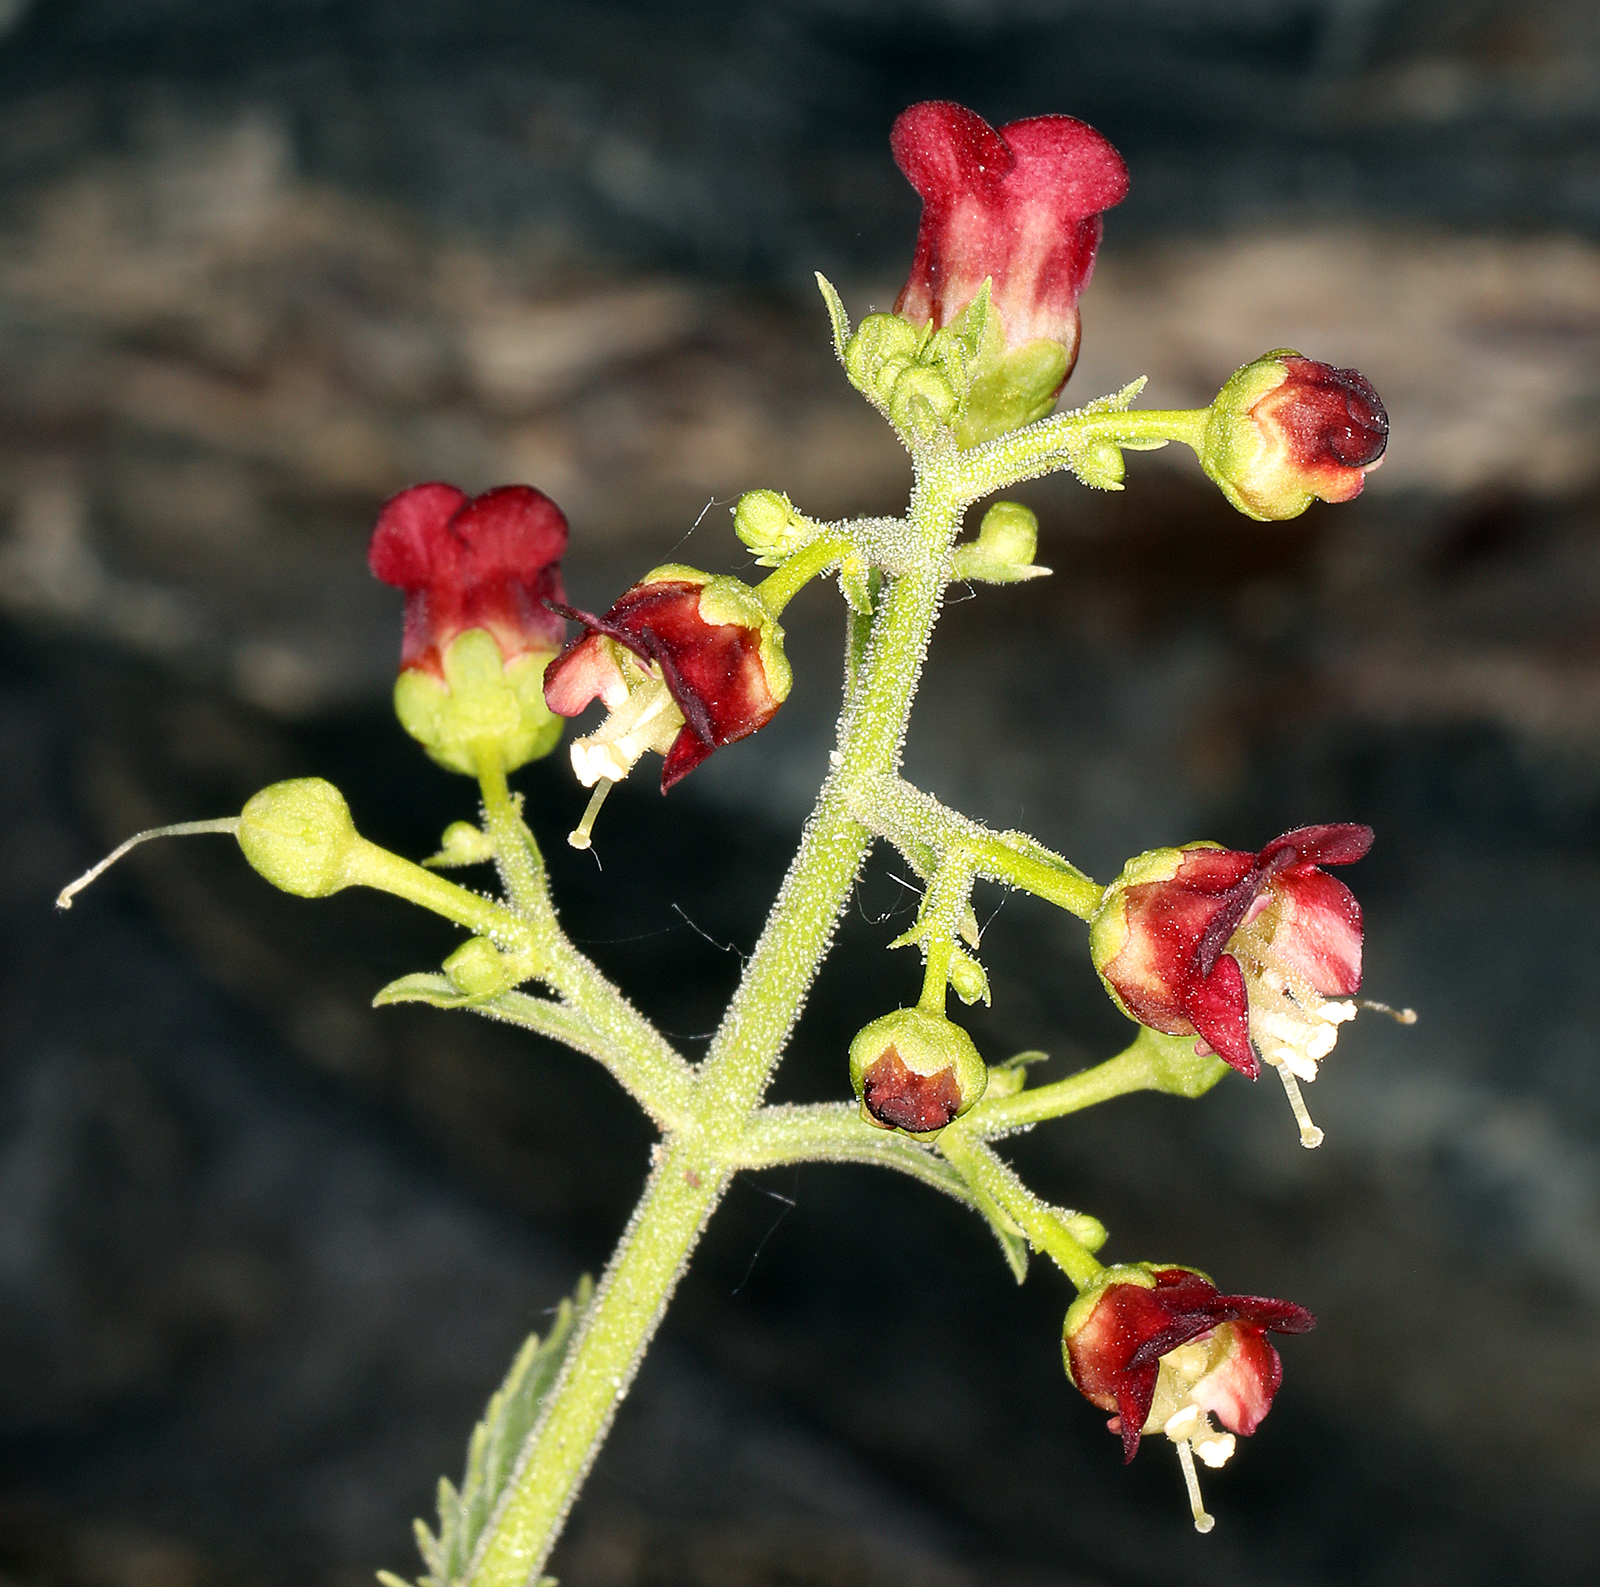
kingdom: Plantae
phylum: Tracheophyta
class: Magnoliopsida
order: Lamiales
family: Scrophulariaceae
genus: Scrophularia
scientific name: Scrophularia desertorum
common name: Desert figwort
